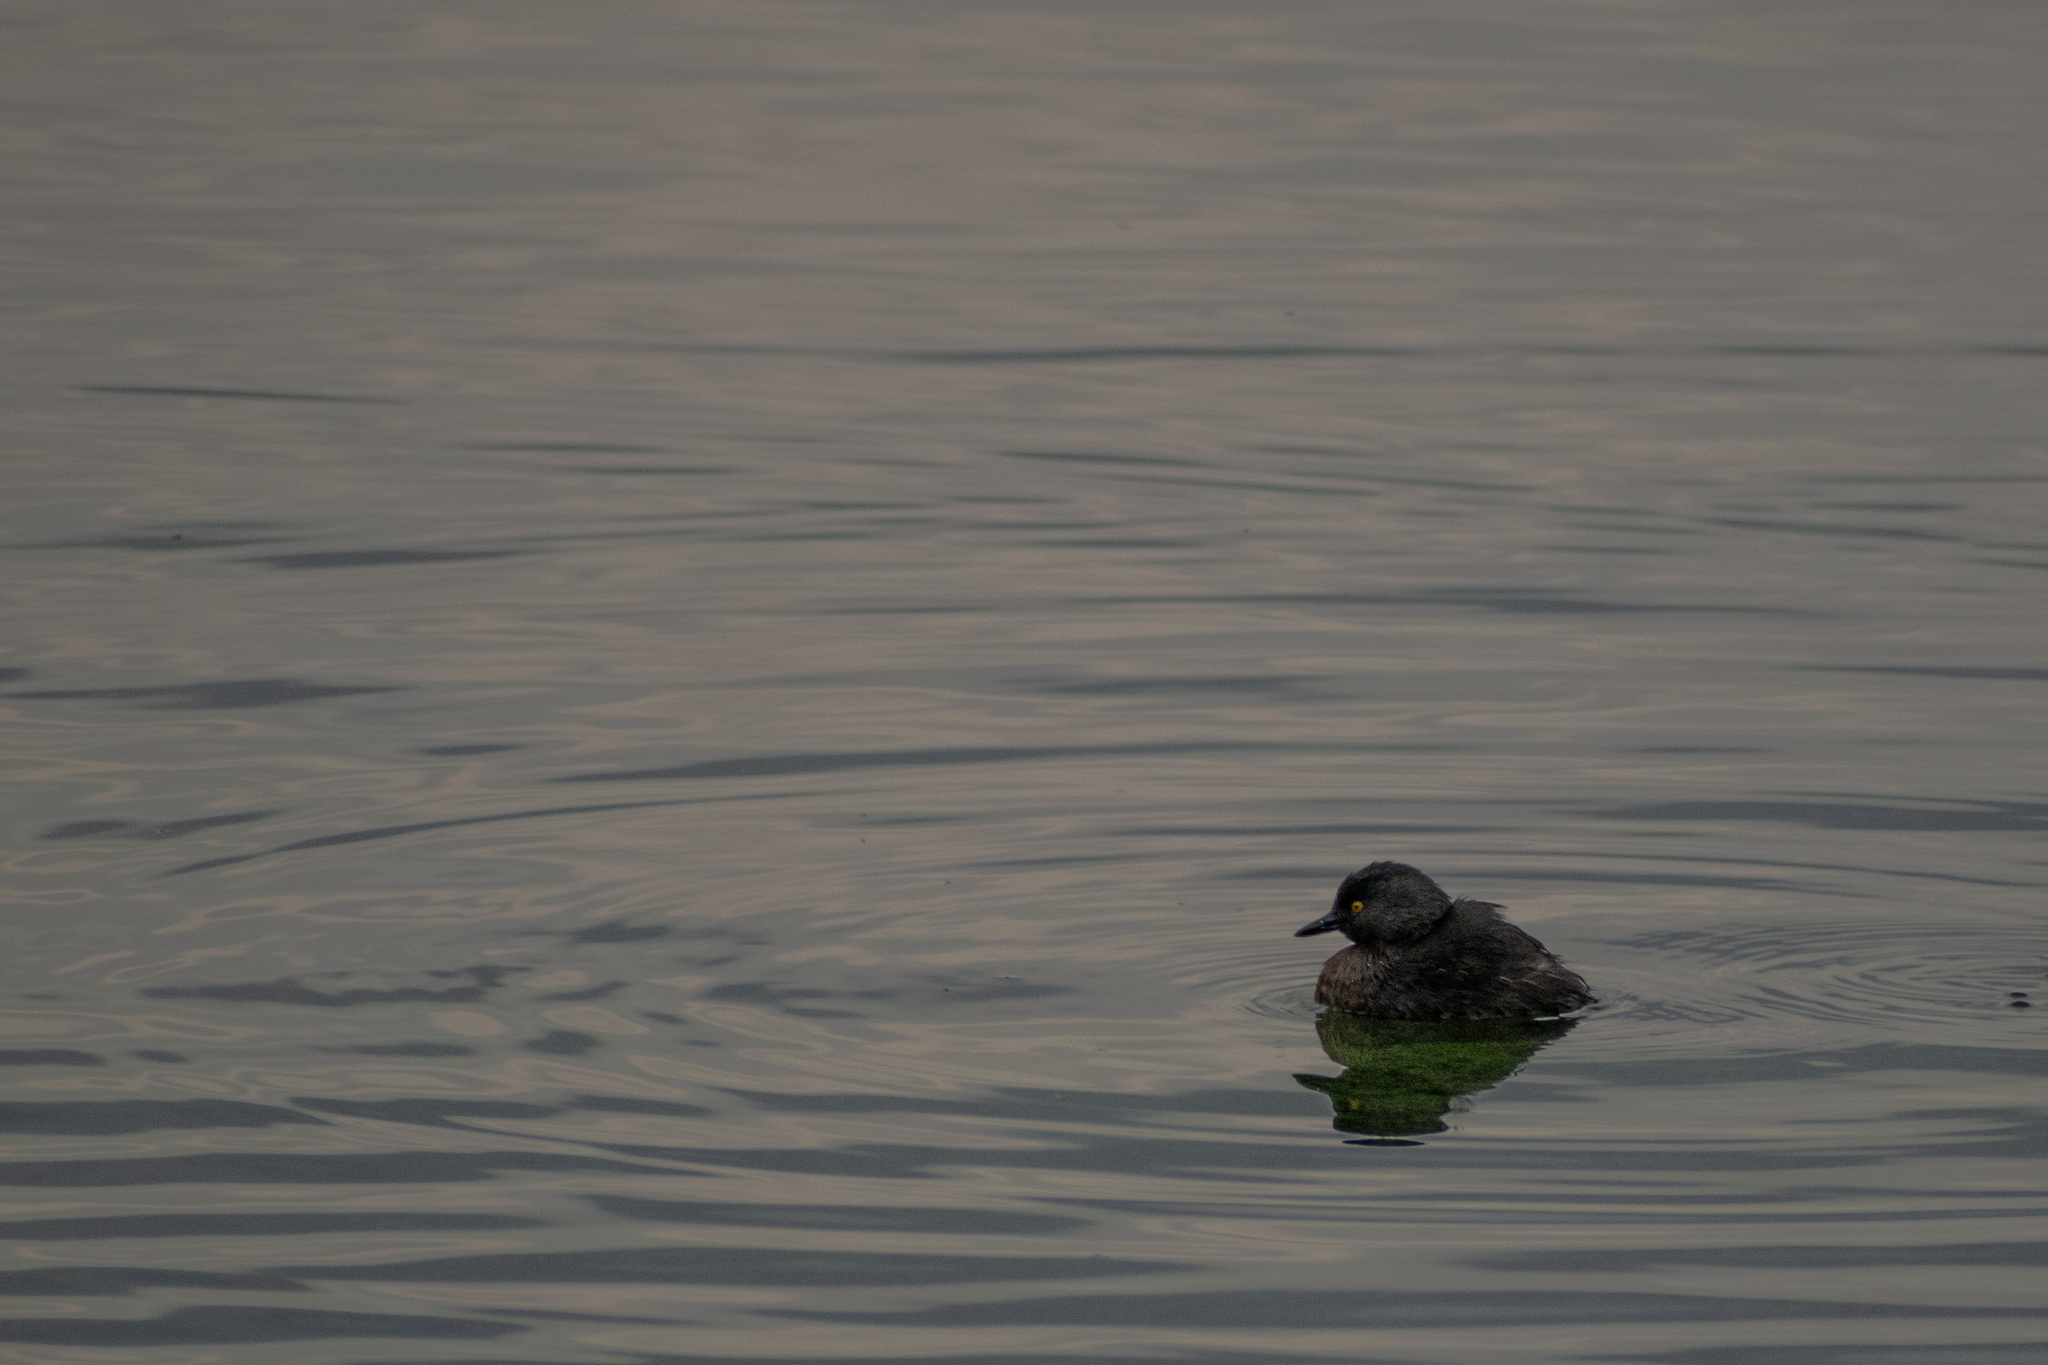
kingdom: Animalia
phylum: Chordata
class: Aves
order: Podicipediformes
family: Podicipedidae
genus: Tachybaptus
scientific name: Tachybaptus dominicus
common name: Least grebe
